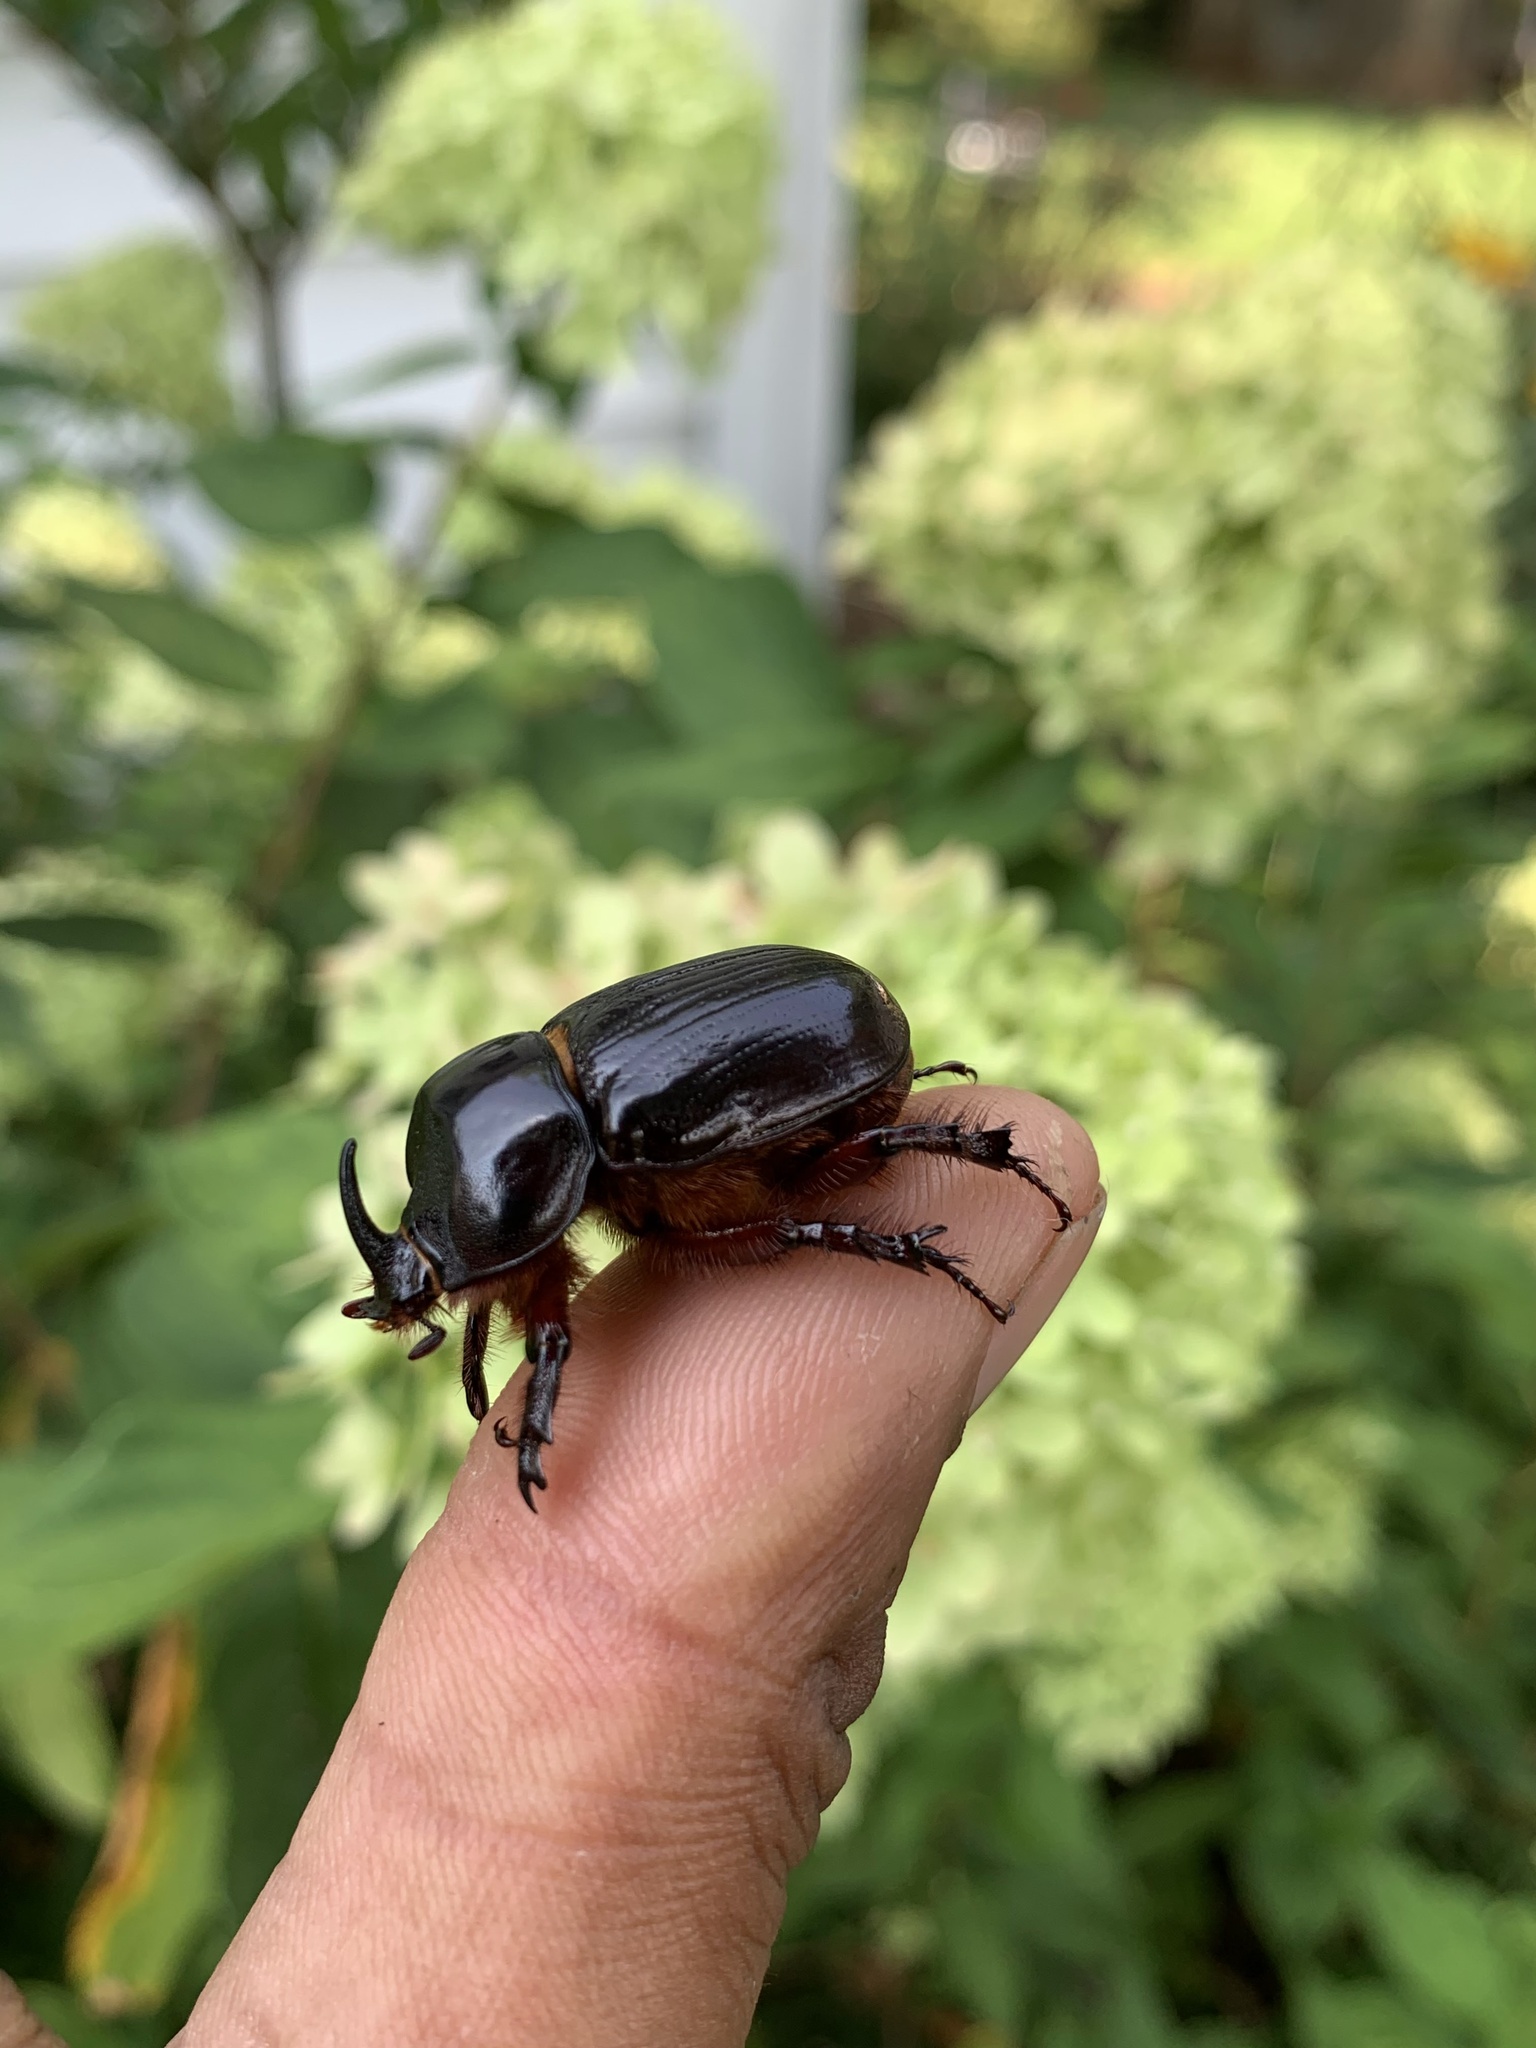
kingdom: Animalia
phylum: Arthropoda
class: Insecta
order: Coleoptera
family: Scarabaeidae
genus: Xyloryctes
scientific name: Xyloryctes jamaicensis
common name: Eastern rhinoceros beetle
